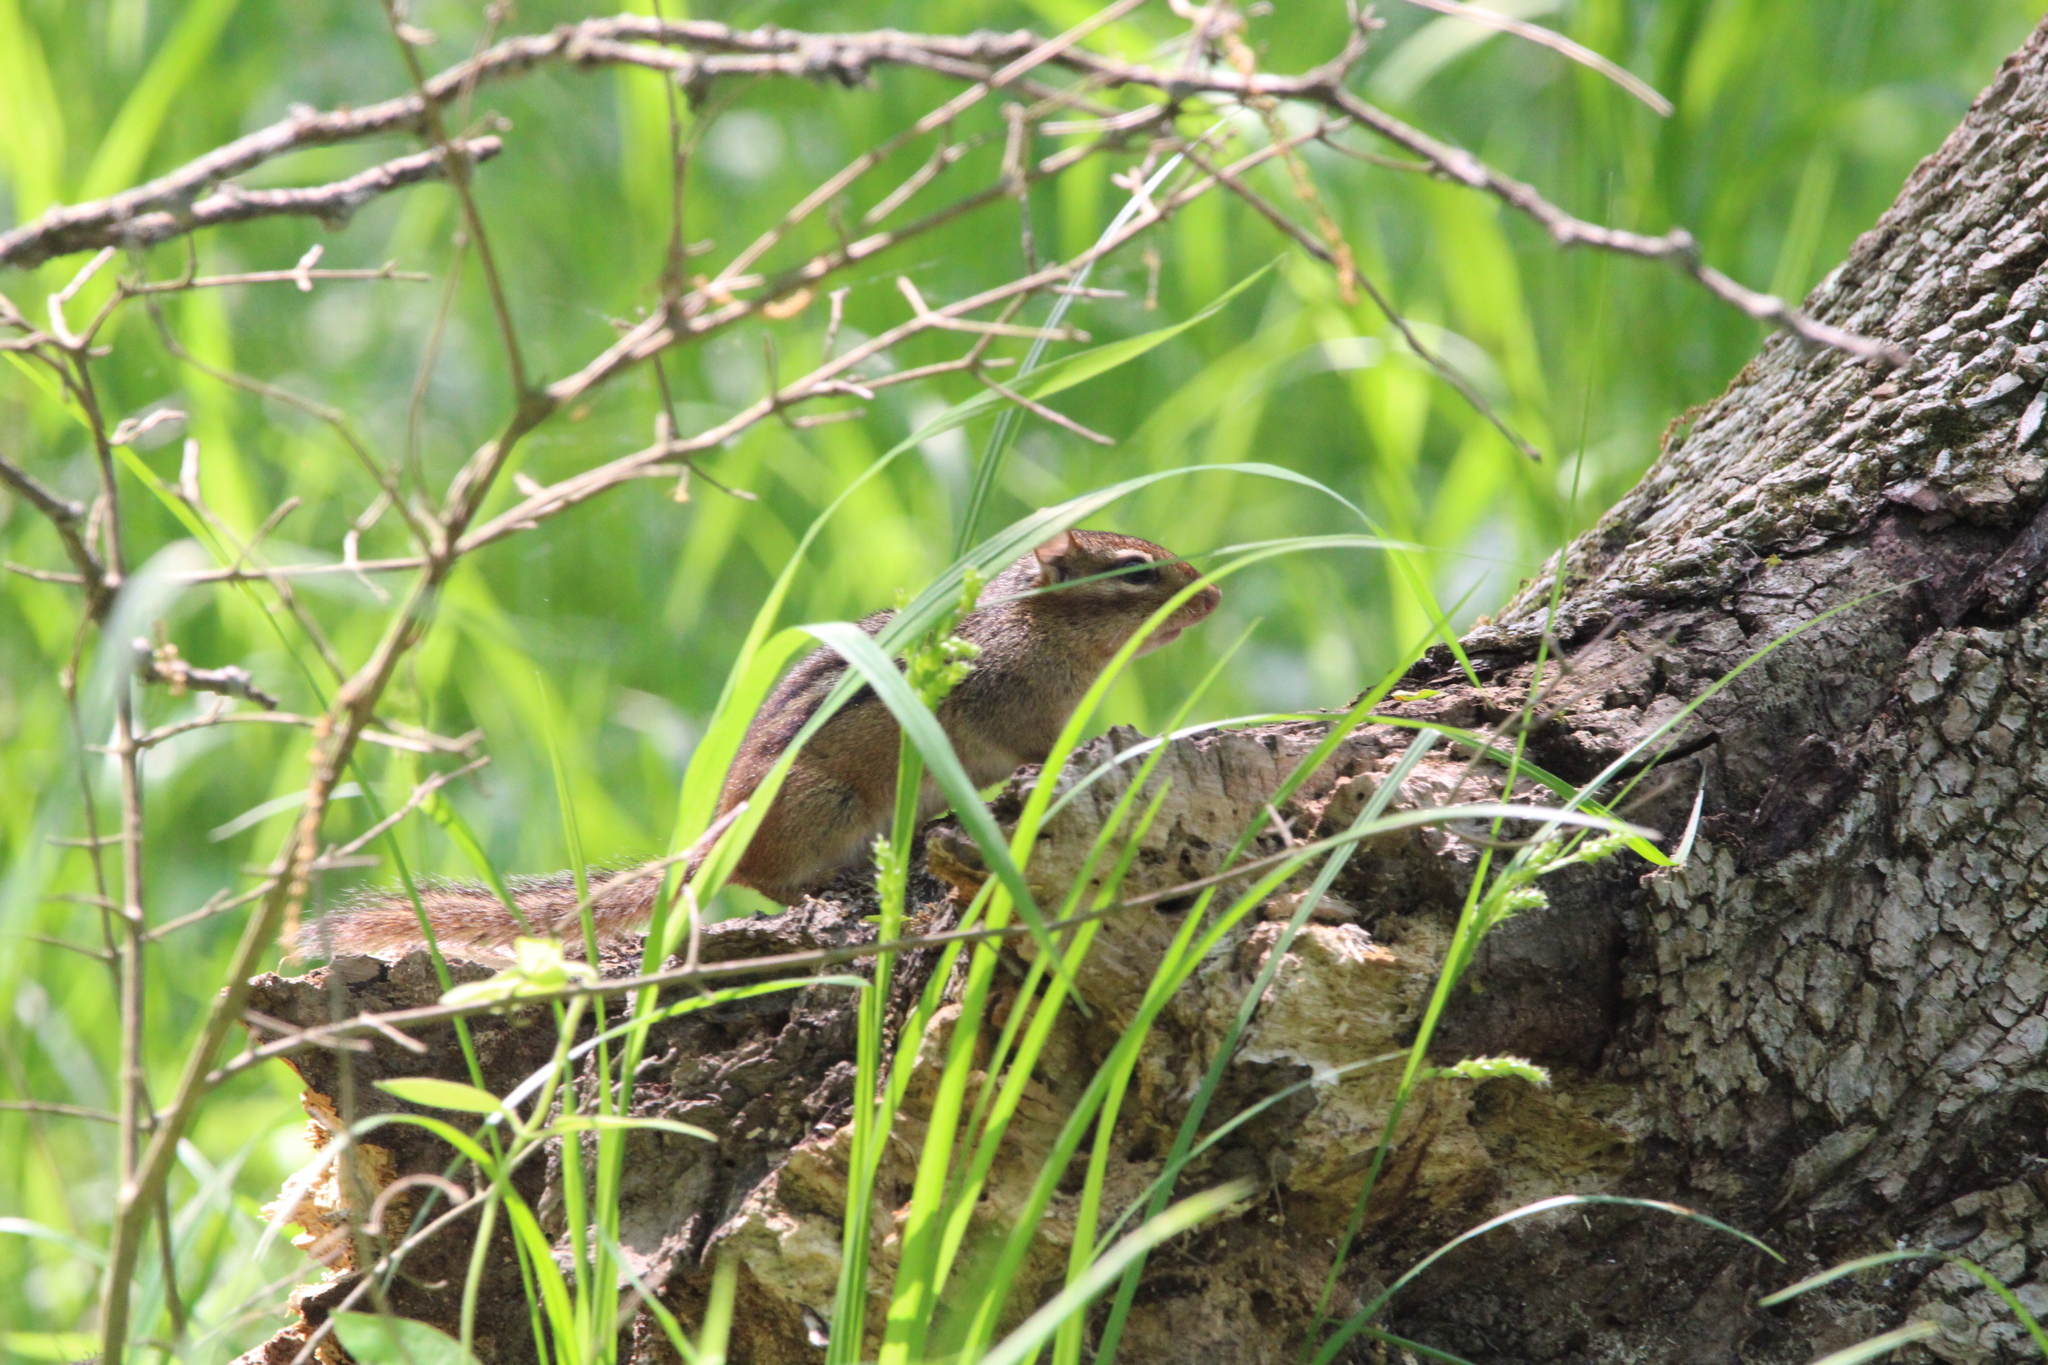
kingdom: Animalia
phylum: Chordata
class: Mammalia
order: Rodentia
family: Sciuridae
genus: Tamias
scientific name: Tamias striatus
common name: Eastern chipmunk
